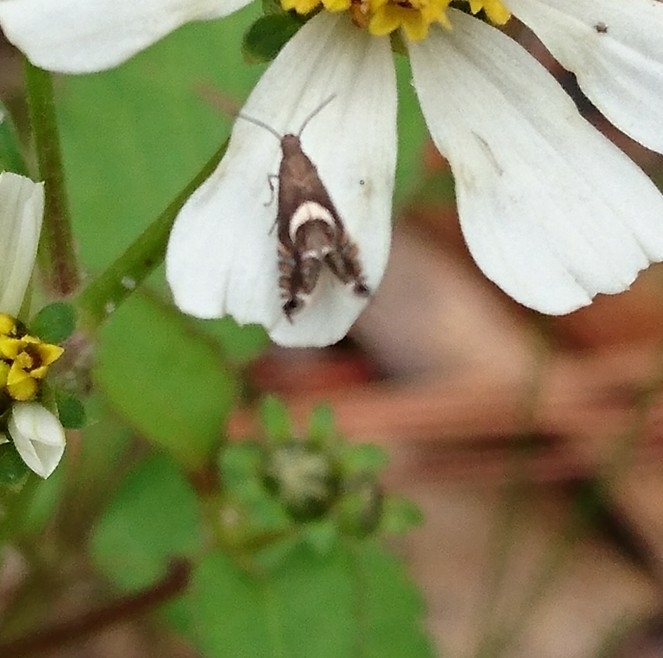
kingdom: Animalia
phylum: Arthropoda
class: Insecta
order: Lepidoptera
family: Glyphipterigidae
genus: Glyphipterix
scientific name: Glyphipterix Diploschizia impigritella
